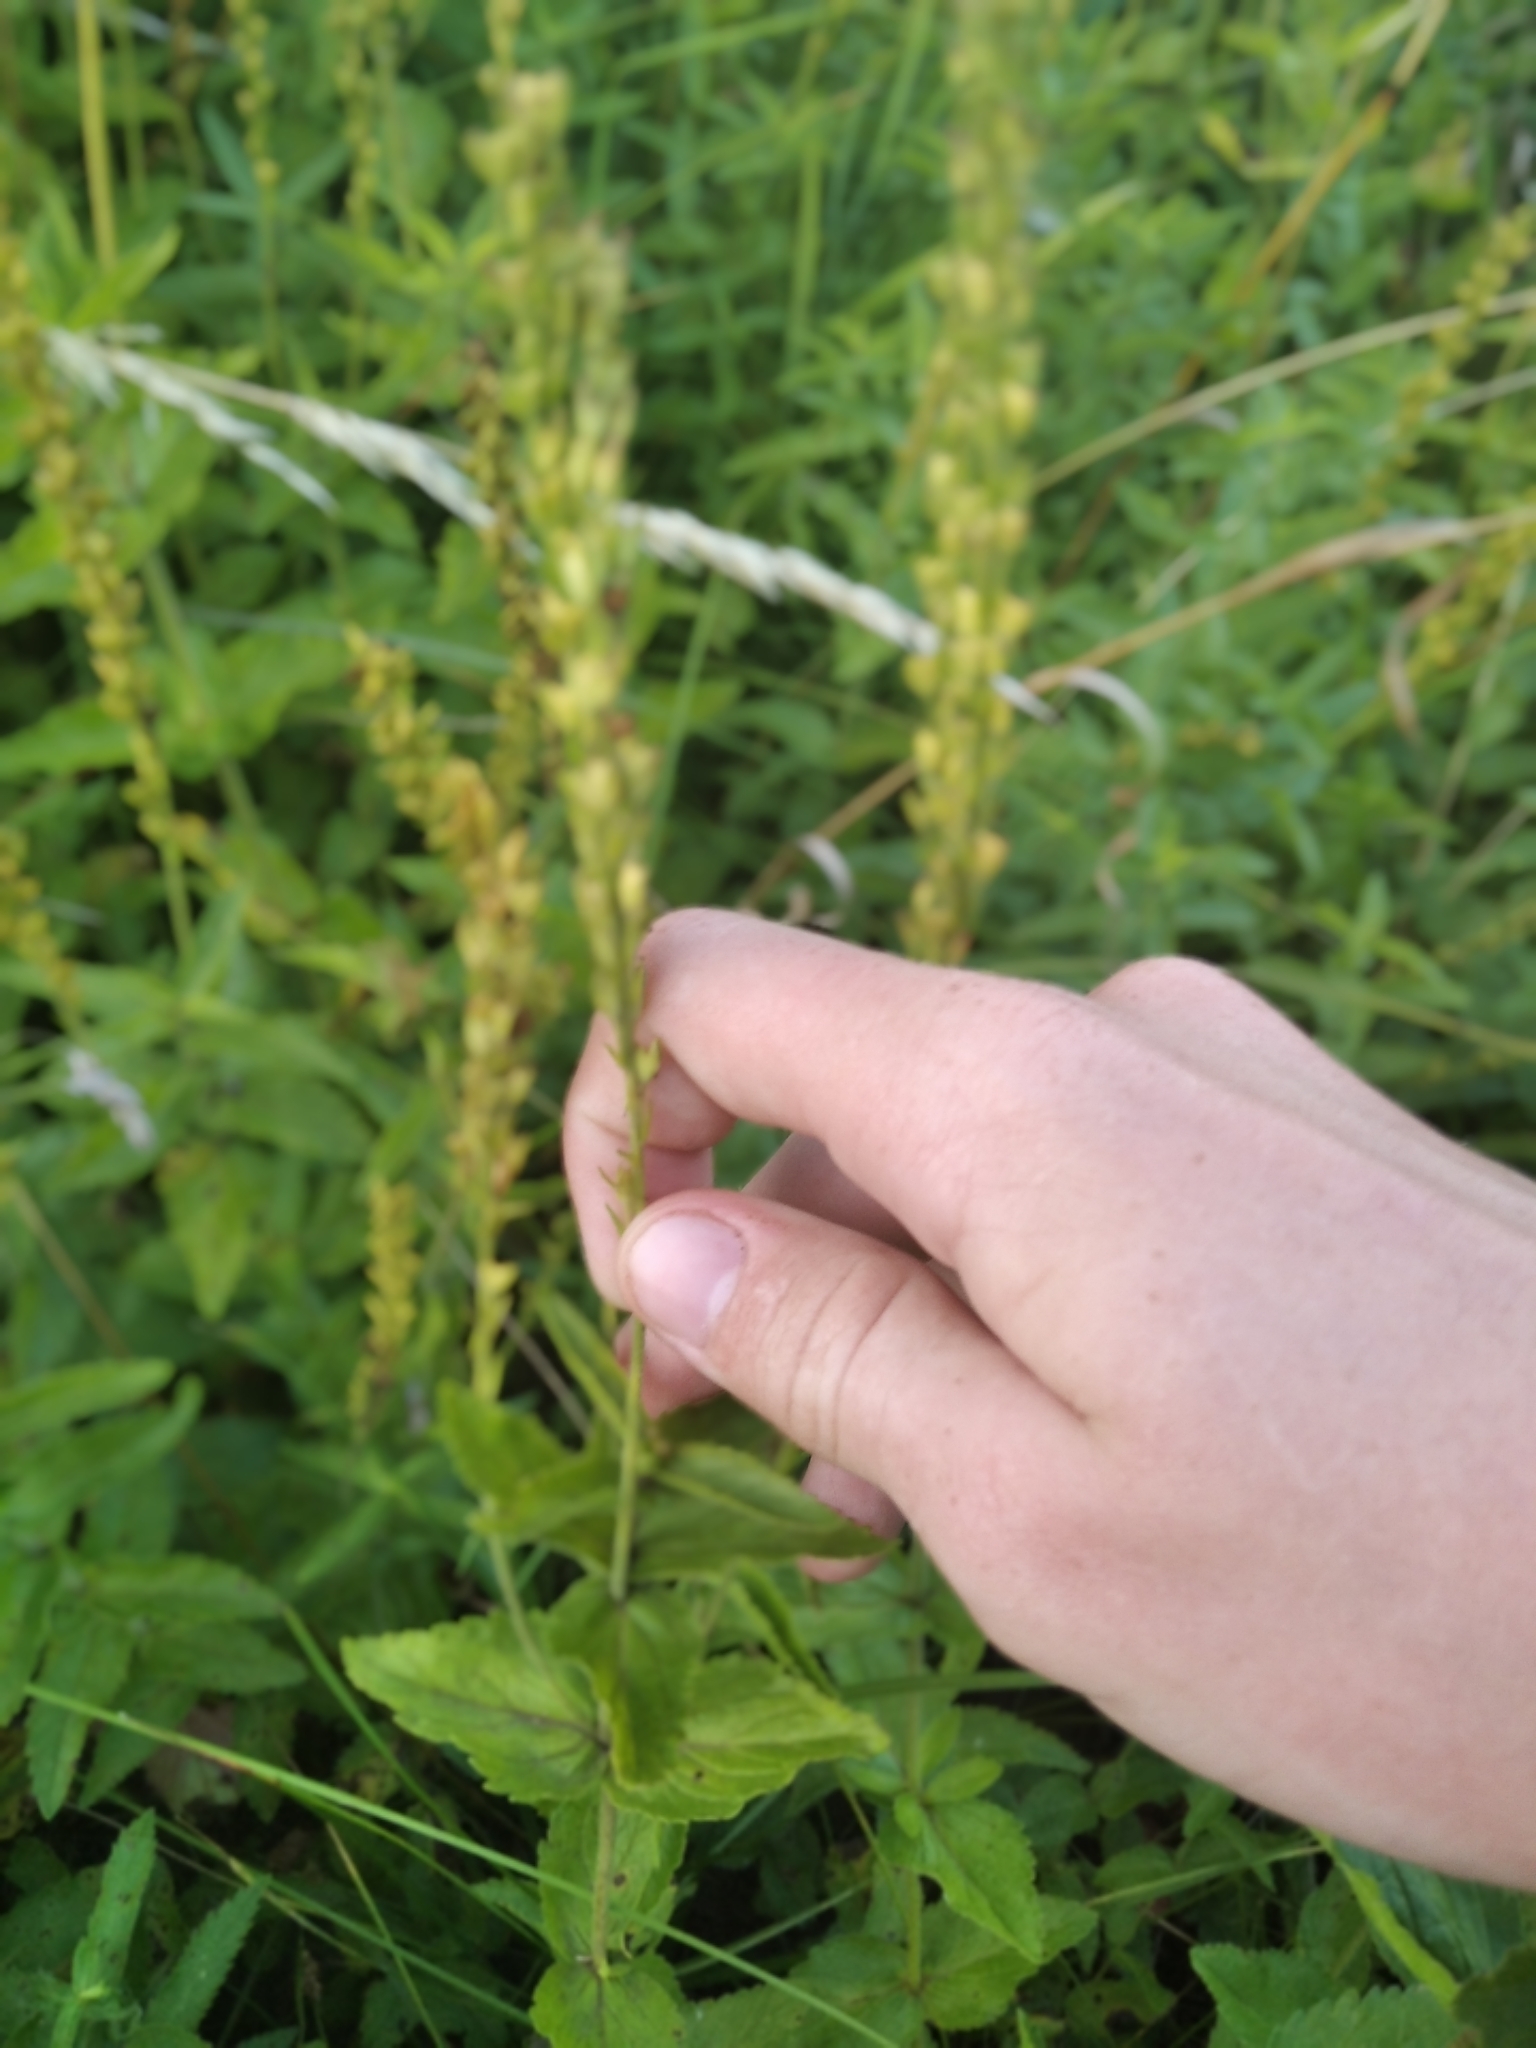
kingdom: Plantae
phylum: Tracheophyta
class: Magnoliopsida
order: Lamiales
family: Plantaginaceae
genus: Veronica
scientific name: Veronica teucrium
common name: Large speedwell
